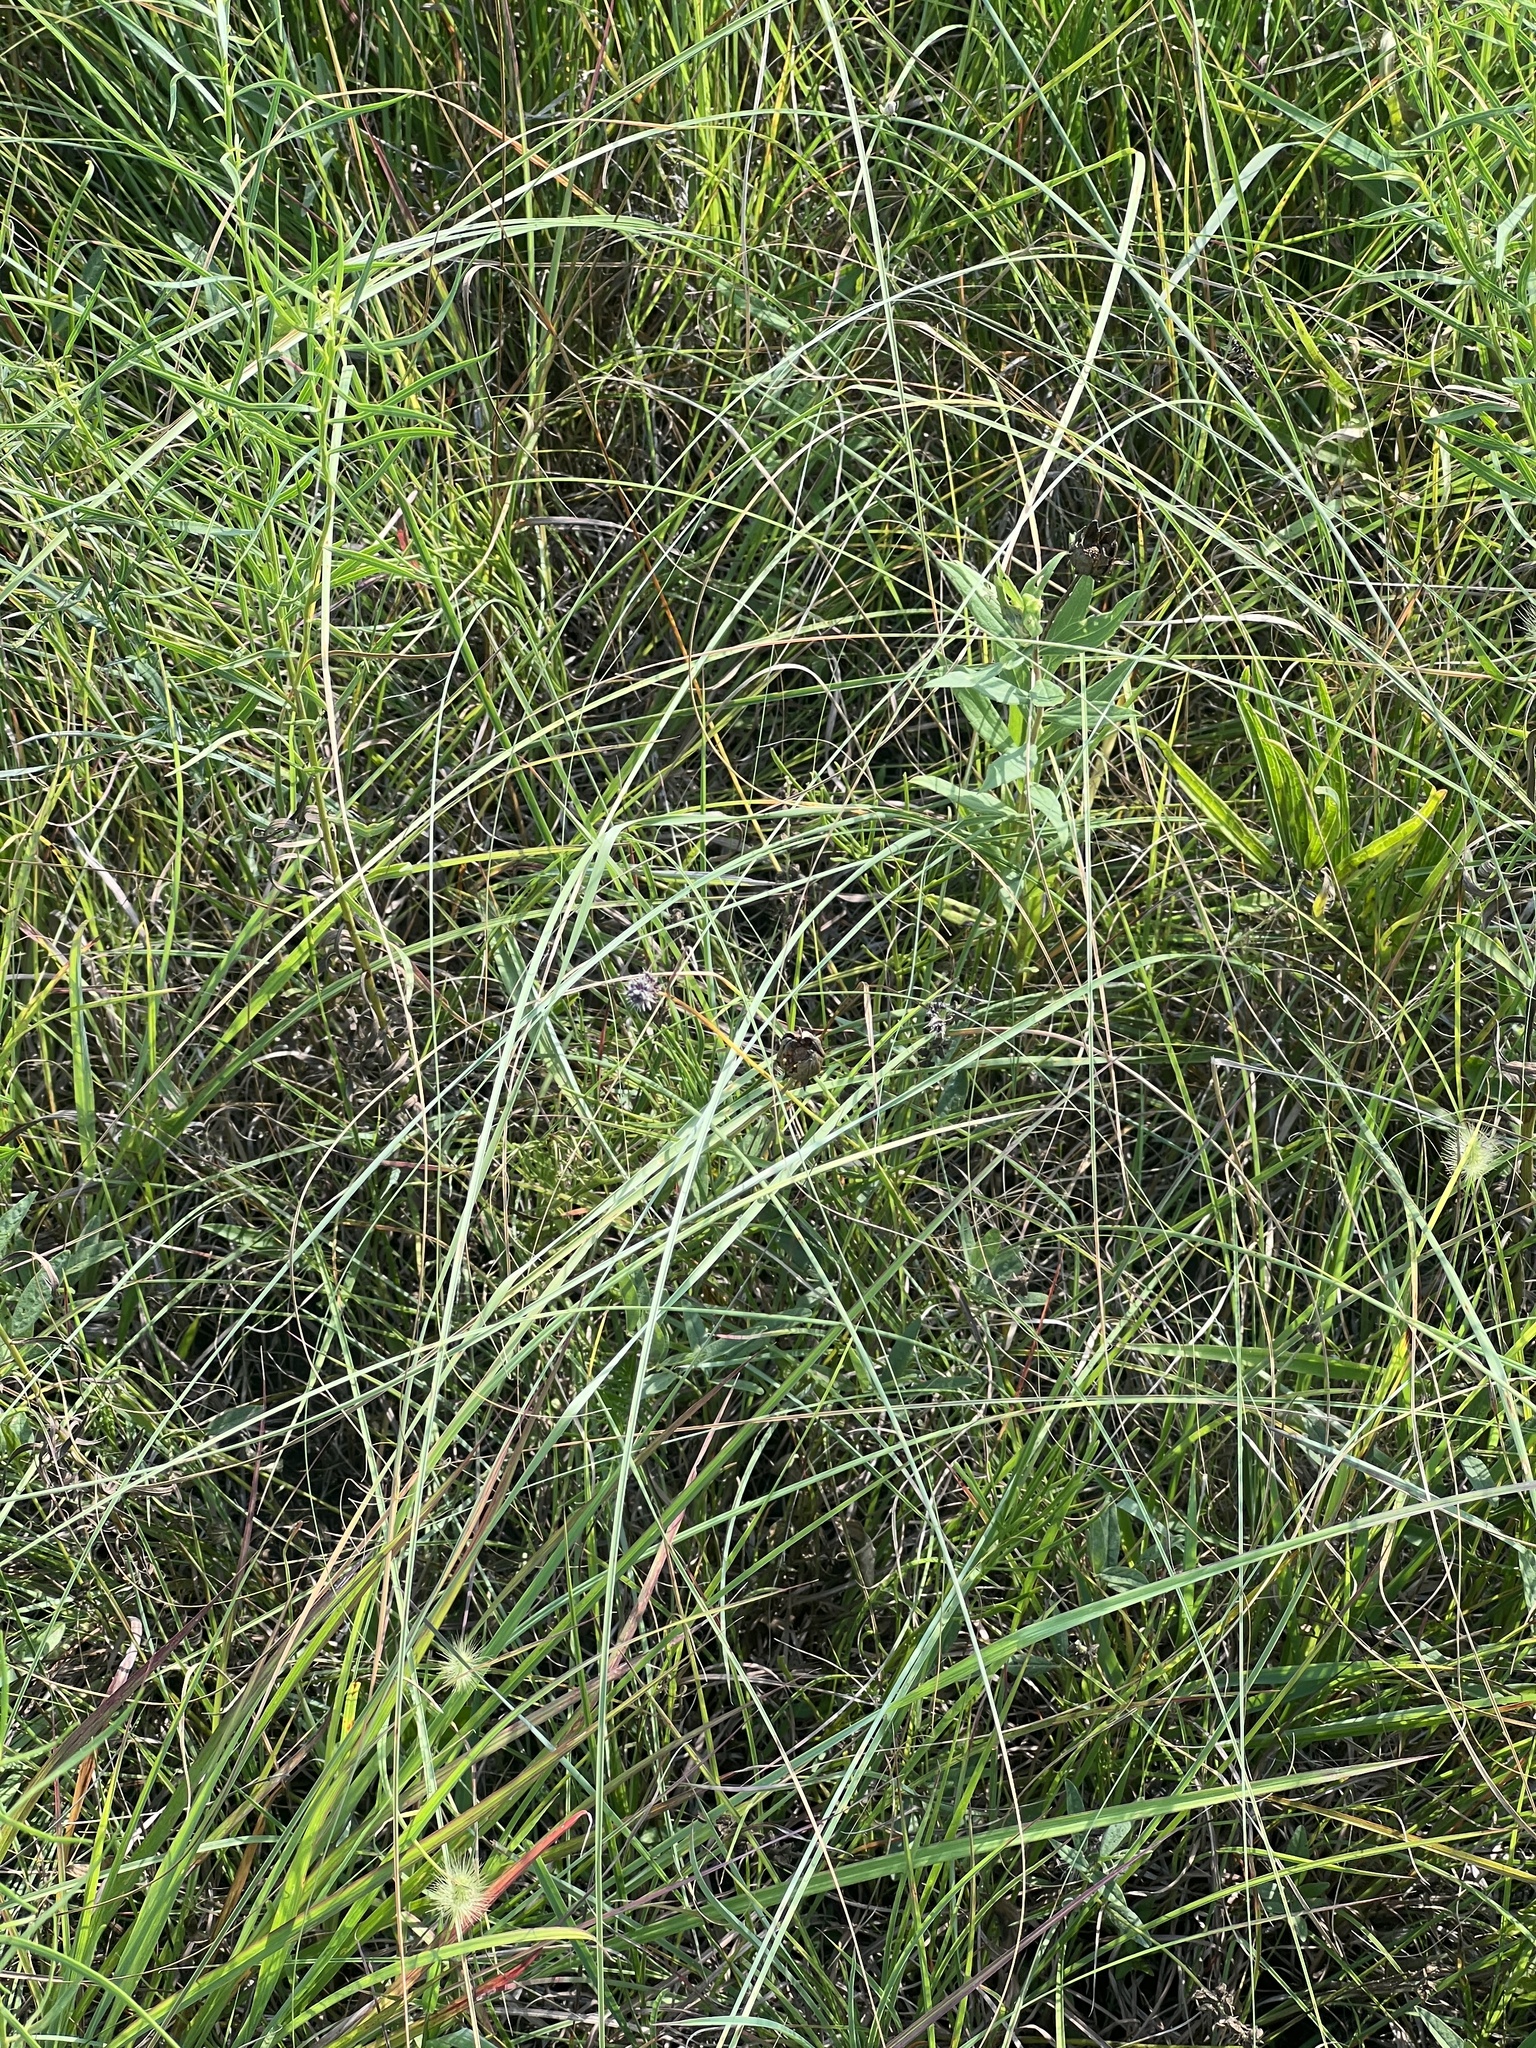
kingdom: Plantae
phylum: Tracheophyta
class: Liliopsida
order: Poales
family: Poaceae
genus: Sporobolus
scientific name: Sporobolus compositus
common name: Rough dropseed
